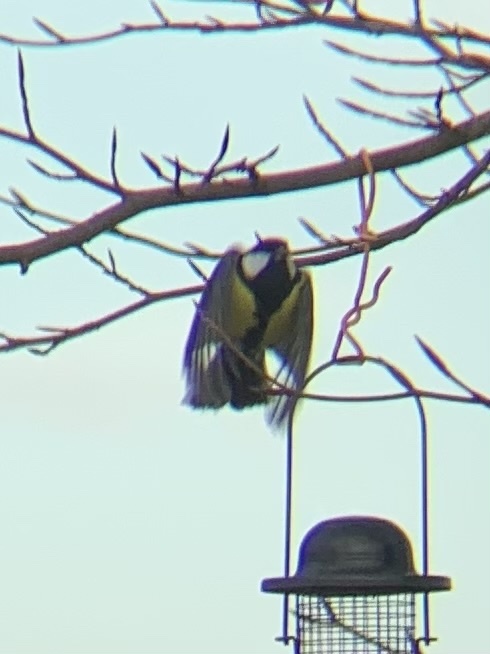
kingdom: Animalia
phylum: Chordata
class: Aves
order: Passeriformes
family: Paridae
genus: Parus
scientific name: Parus major
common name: Great tit
